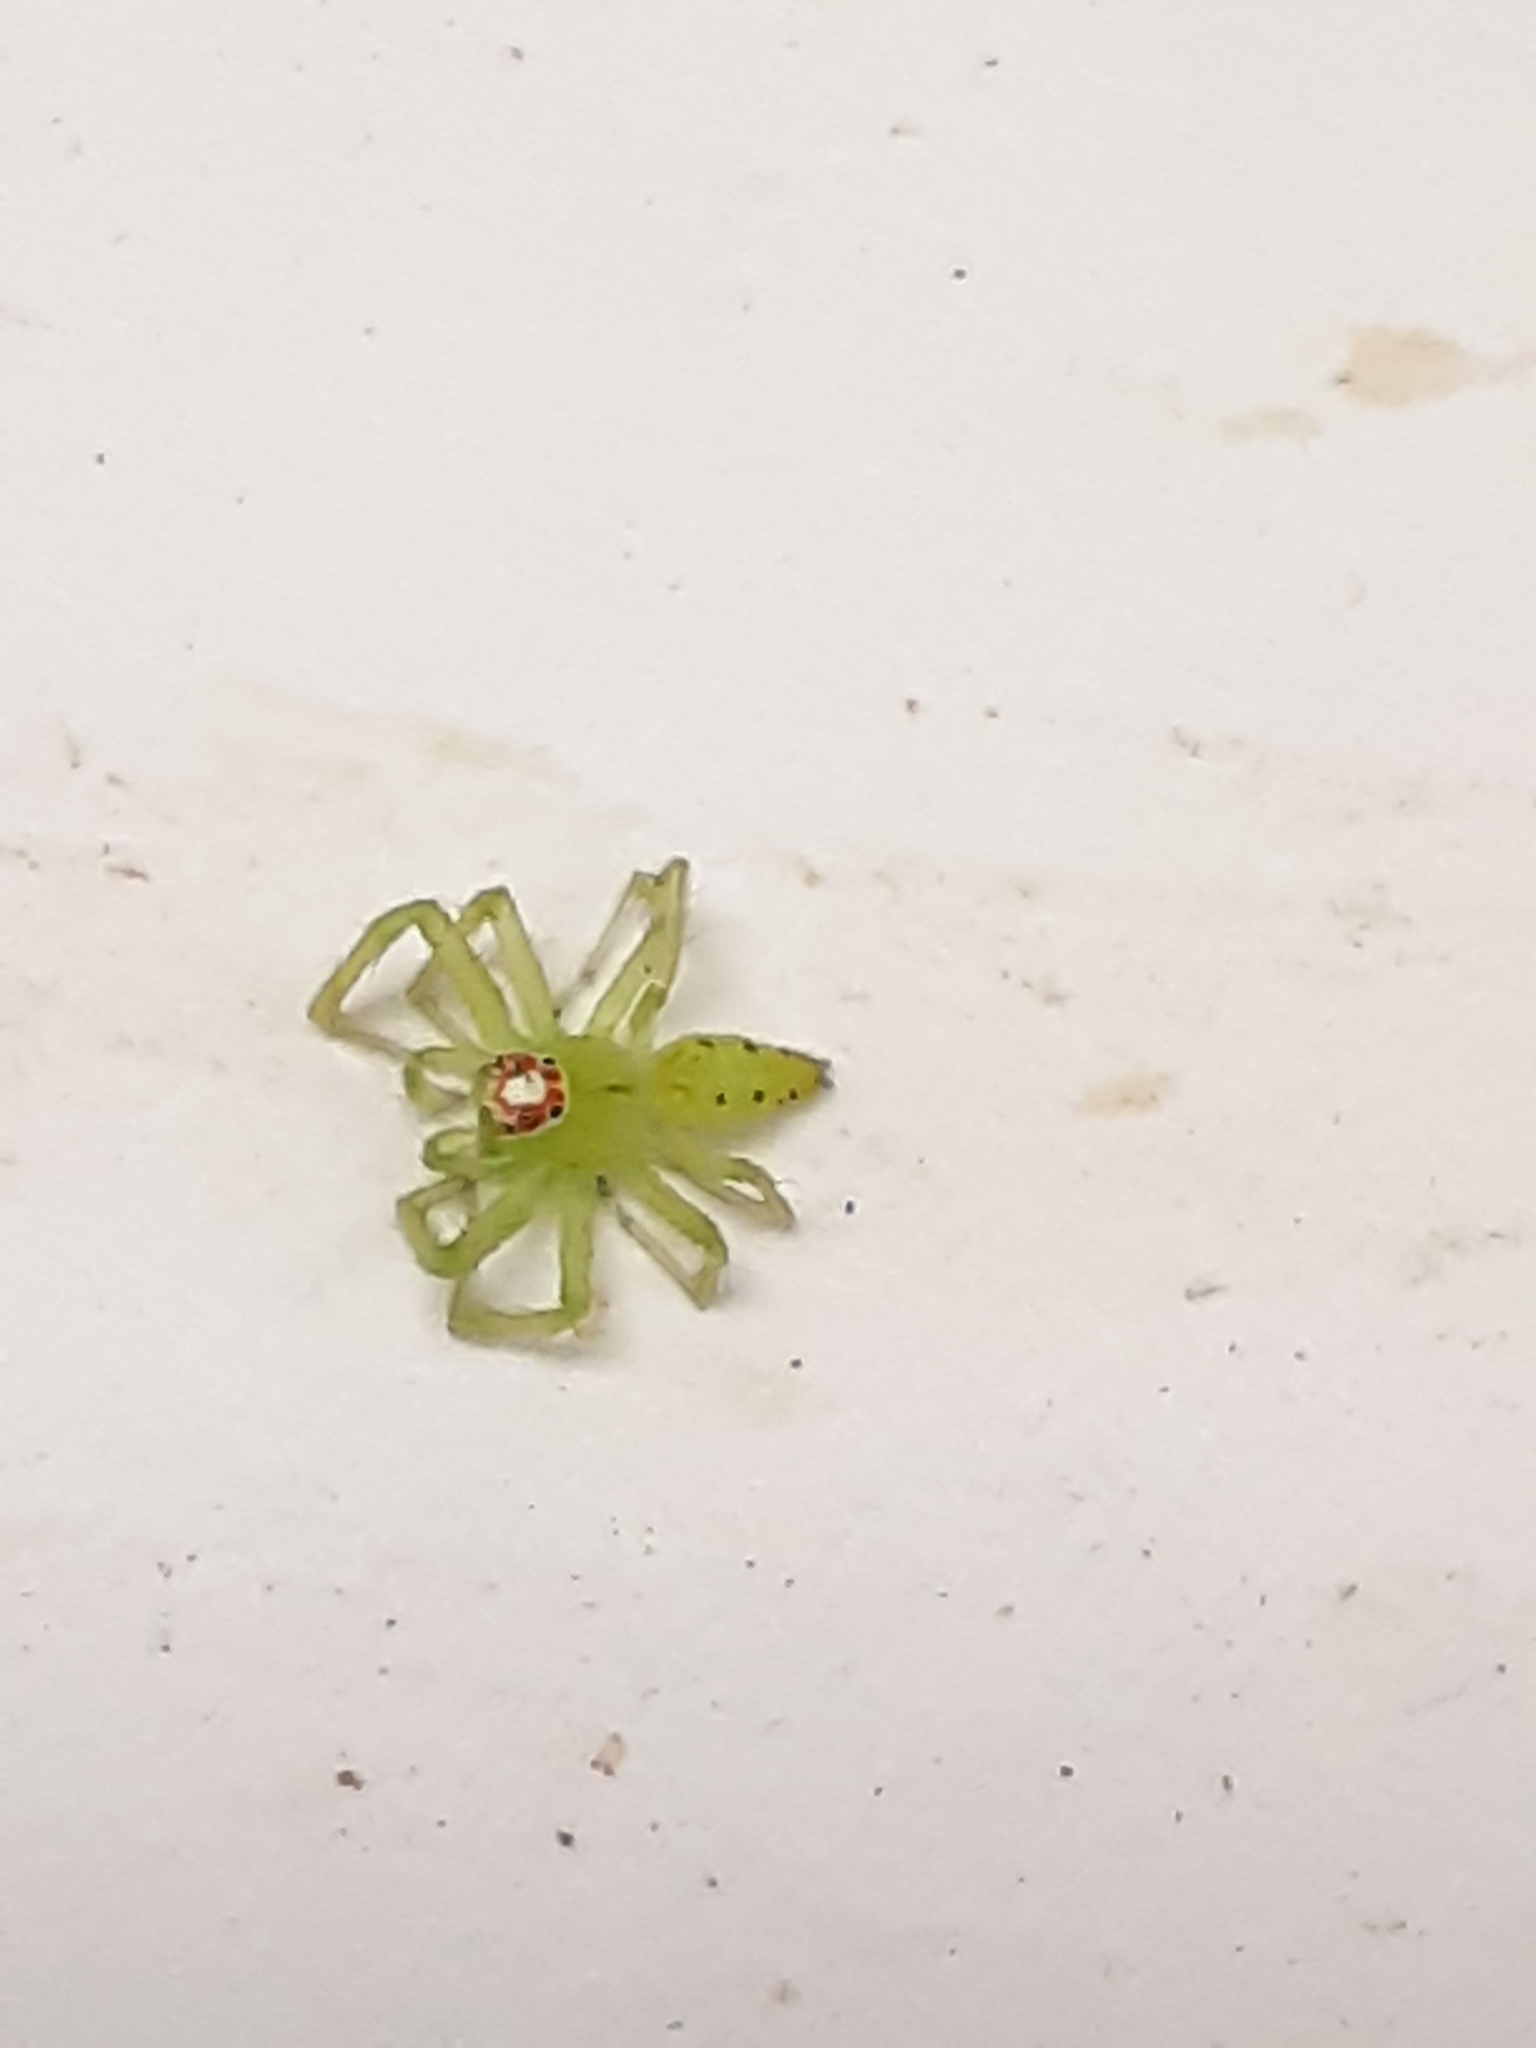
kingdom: Animalia
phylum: Arthropoda
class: Arachnida
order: Araneae
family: Salticidae
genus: Lyssomanes
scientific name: Lyssomanes viridis
